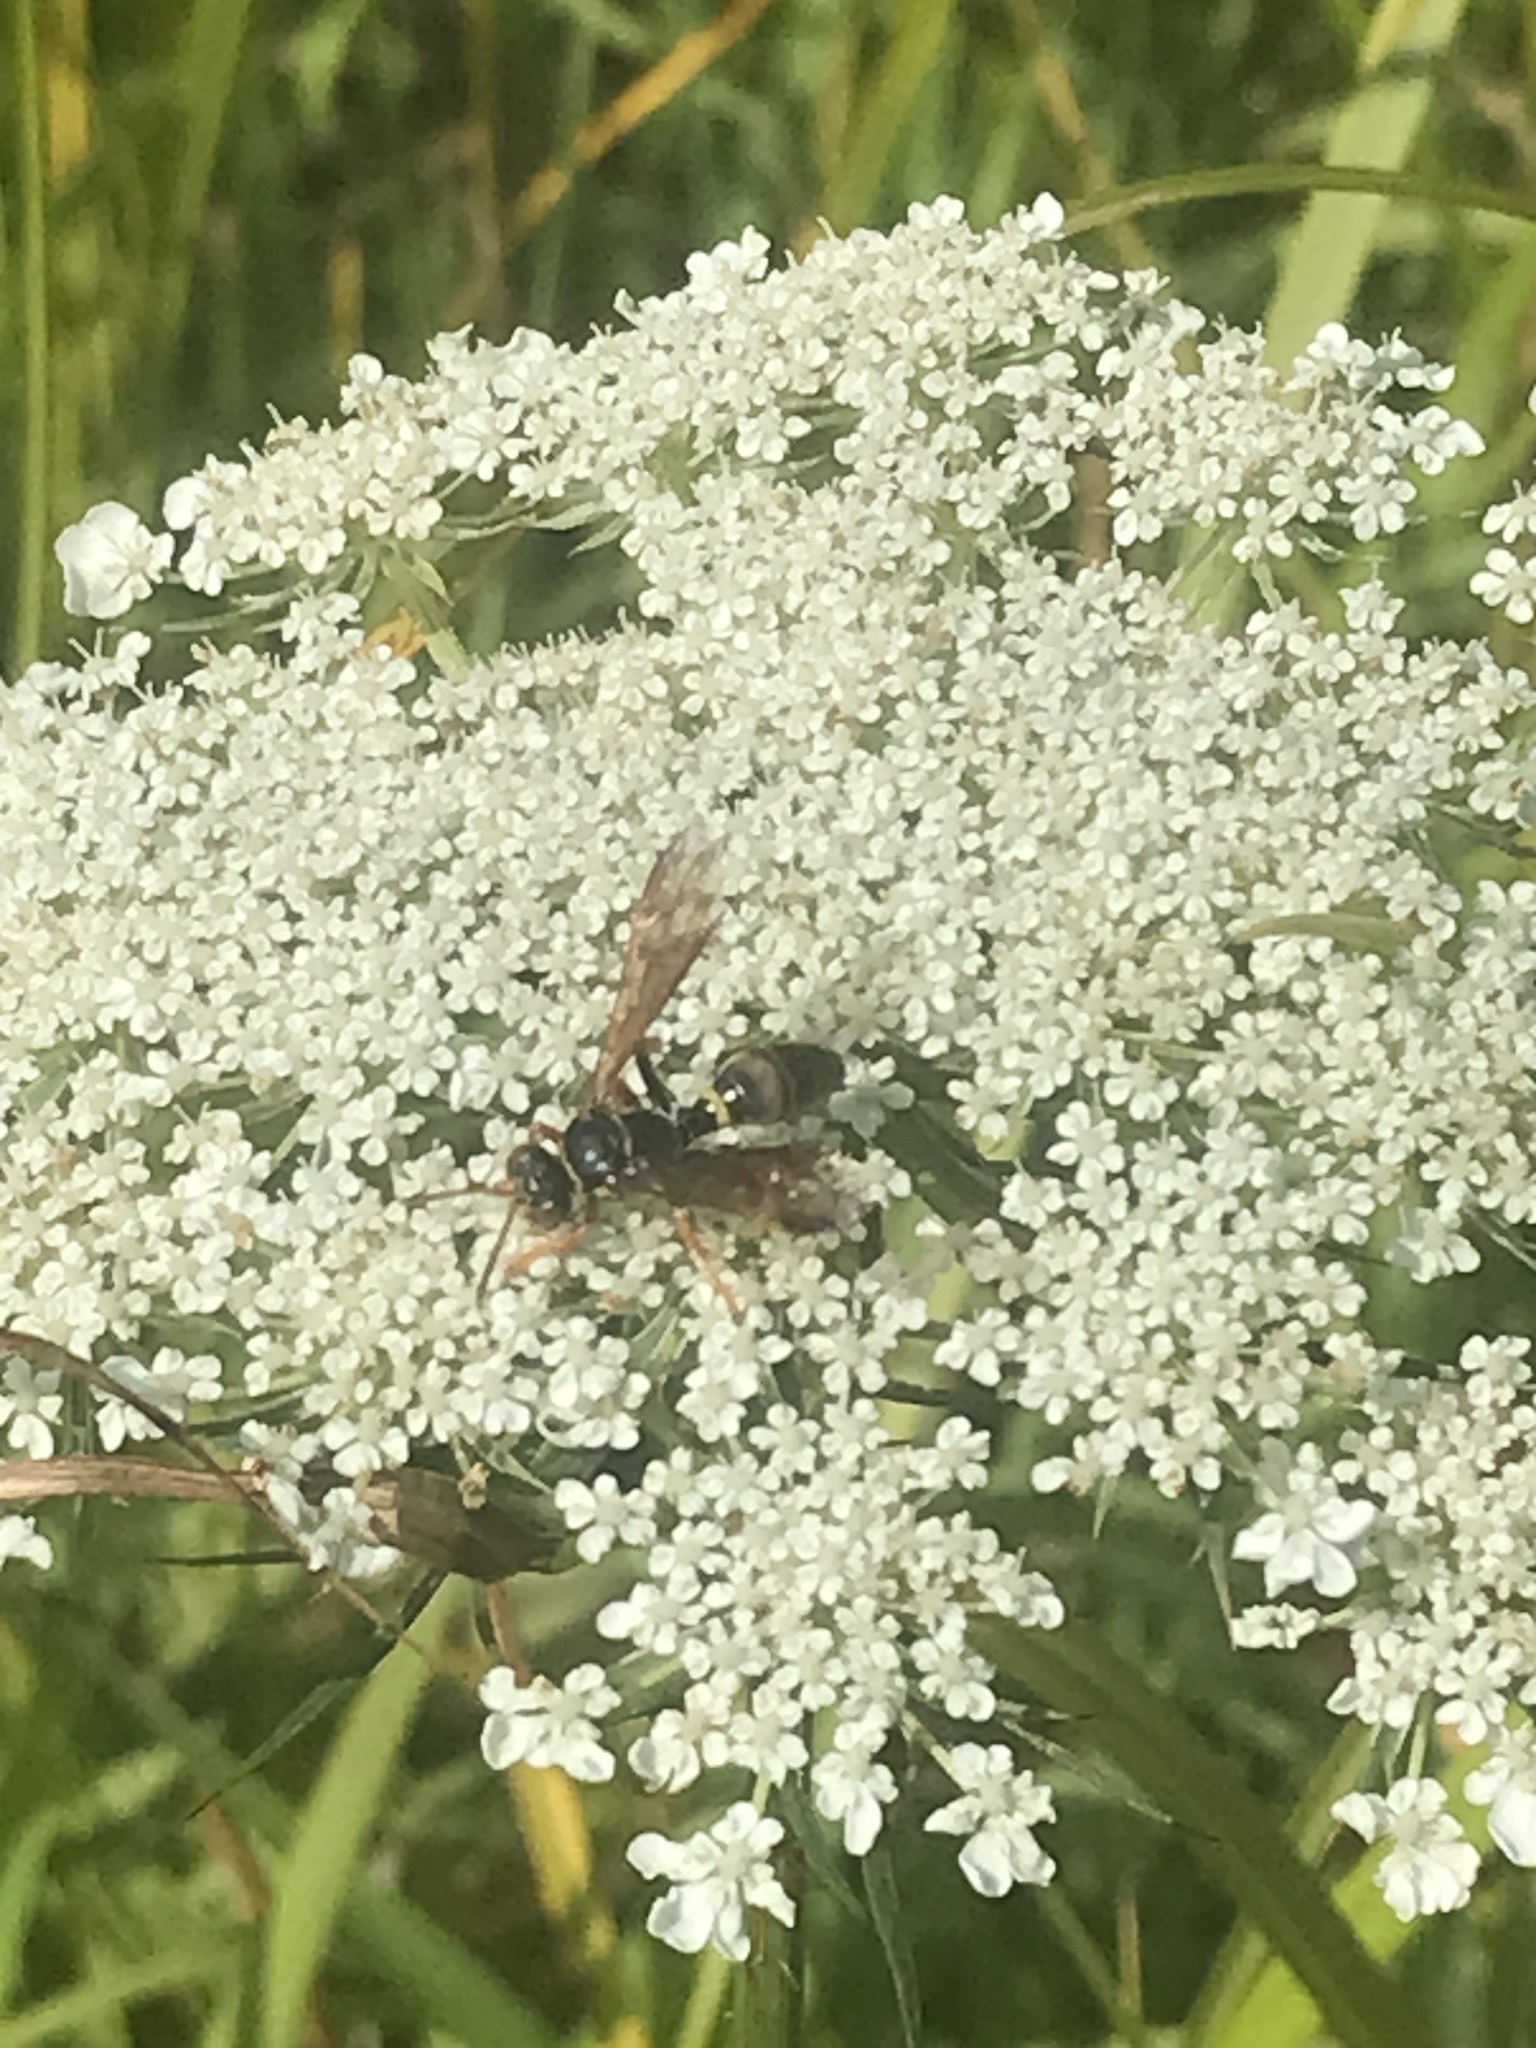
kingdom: Animalia
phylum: Arthropoda
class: Insecta
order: Hymenoptera
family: Crabronidae
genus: Saygorytes
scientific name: Saygorytes phaleratus
